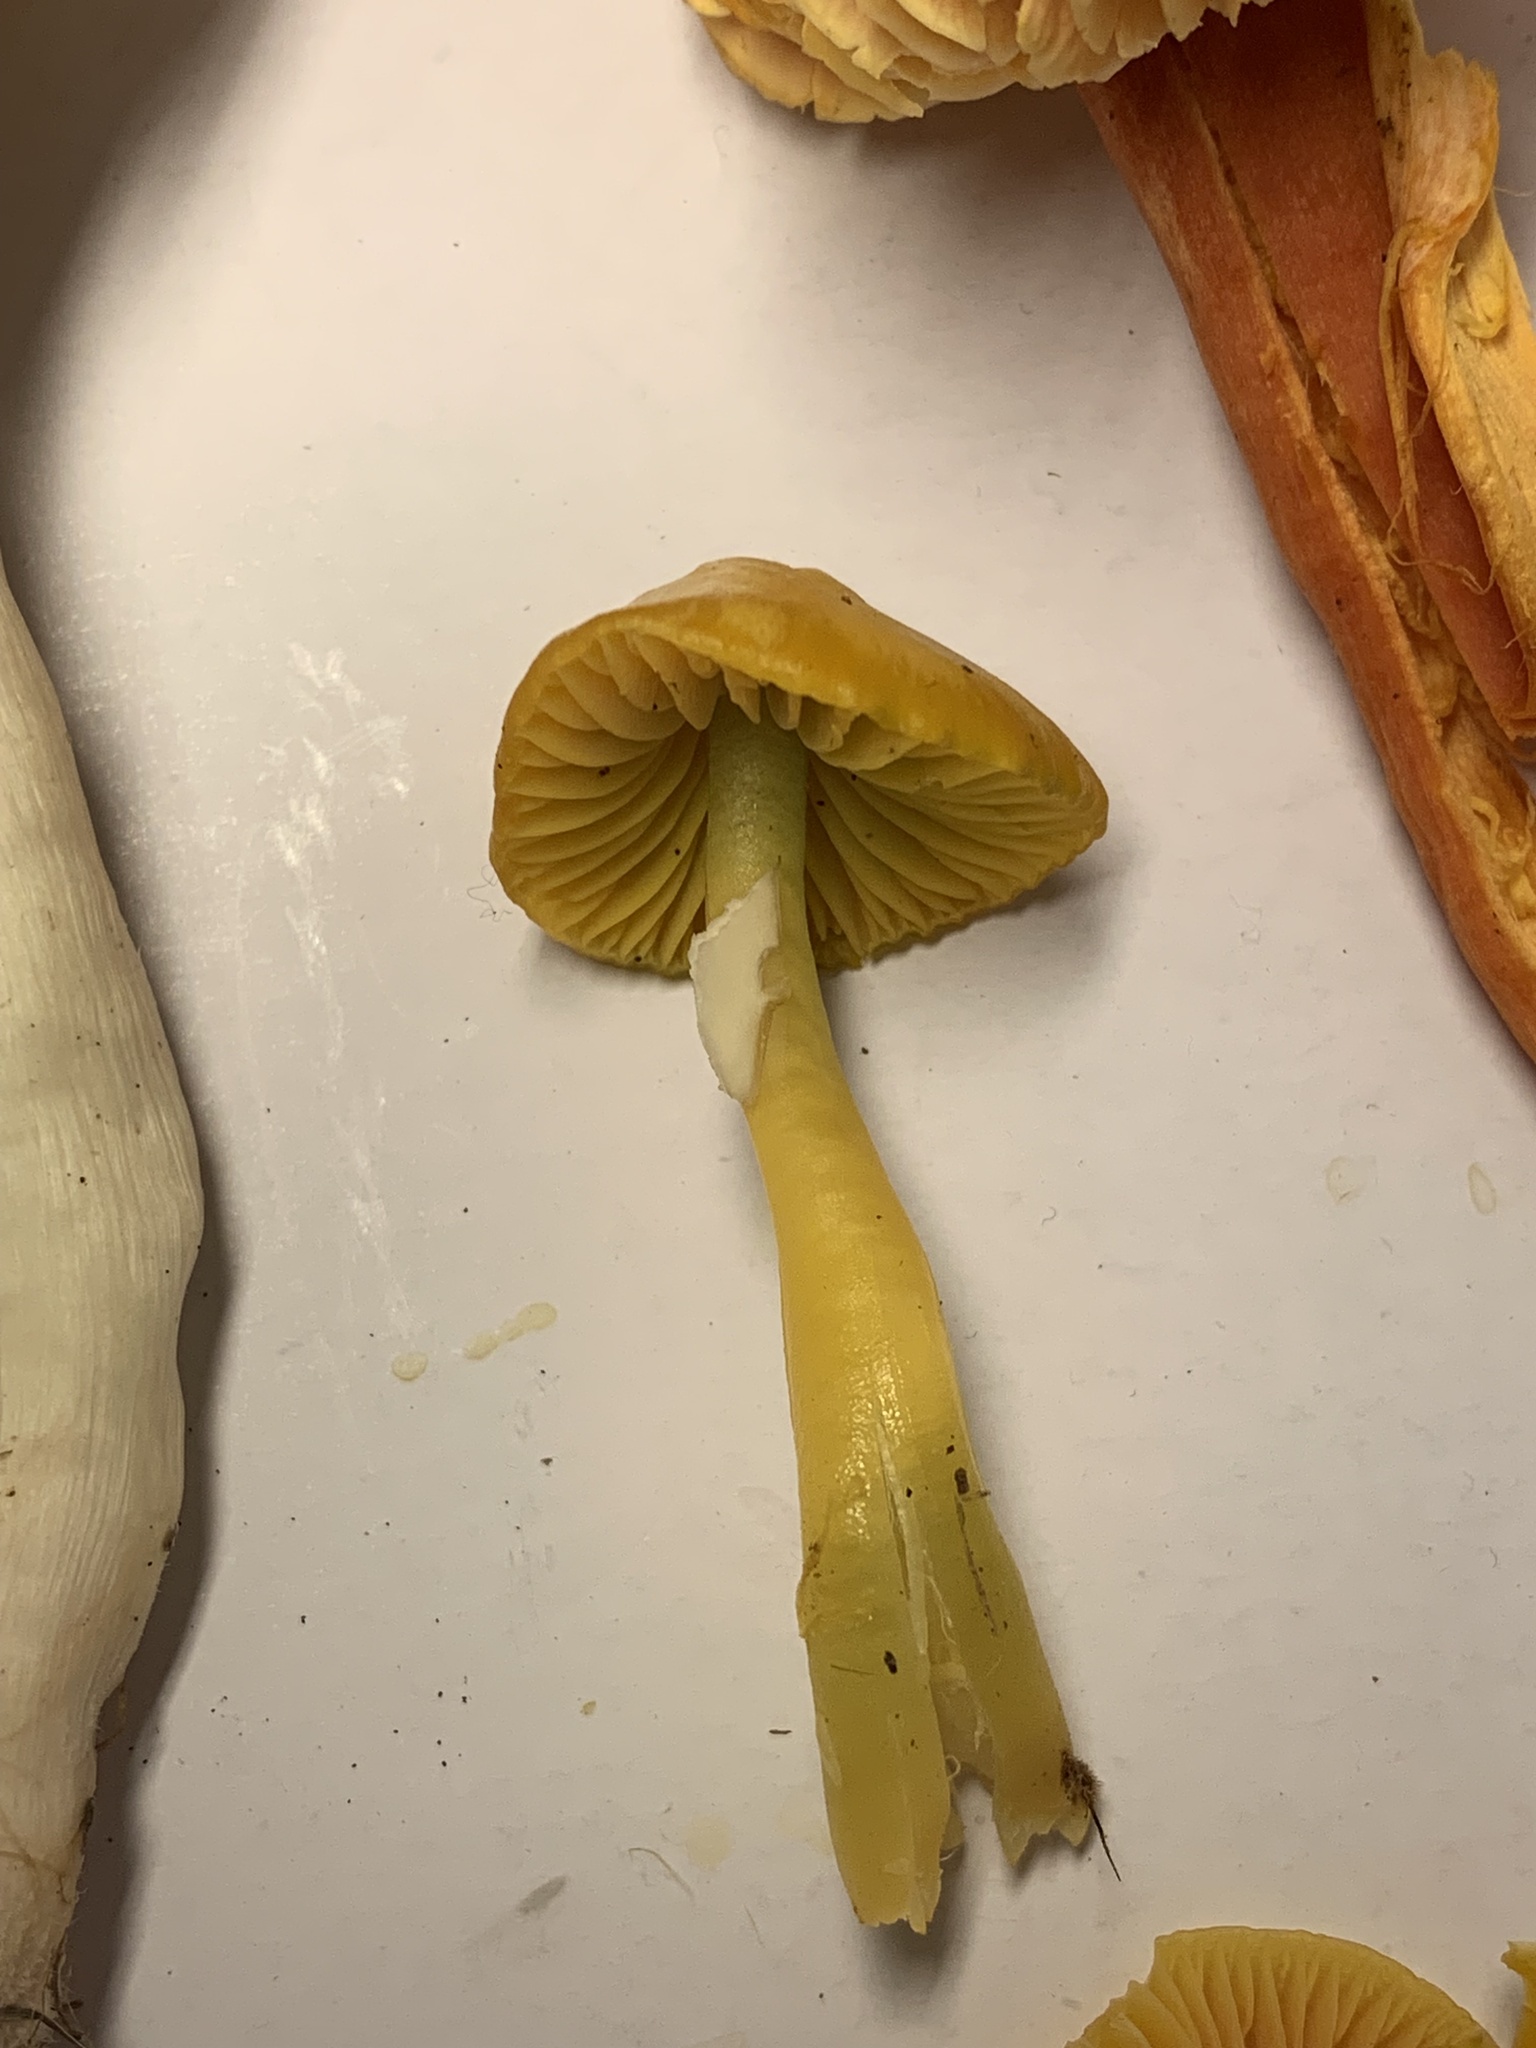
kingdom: Fungi
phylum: Basidiomycota
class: Agaricomycetes
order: Agaricales
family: Hygrophoraceae
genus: Gliophorus
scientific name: Gliophorus psittacinus
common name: Parrot wax-cap
